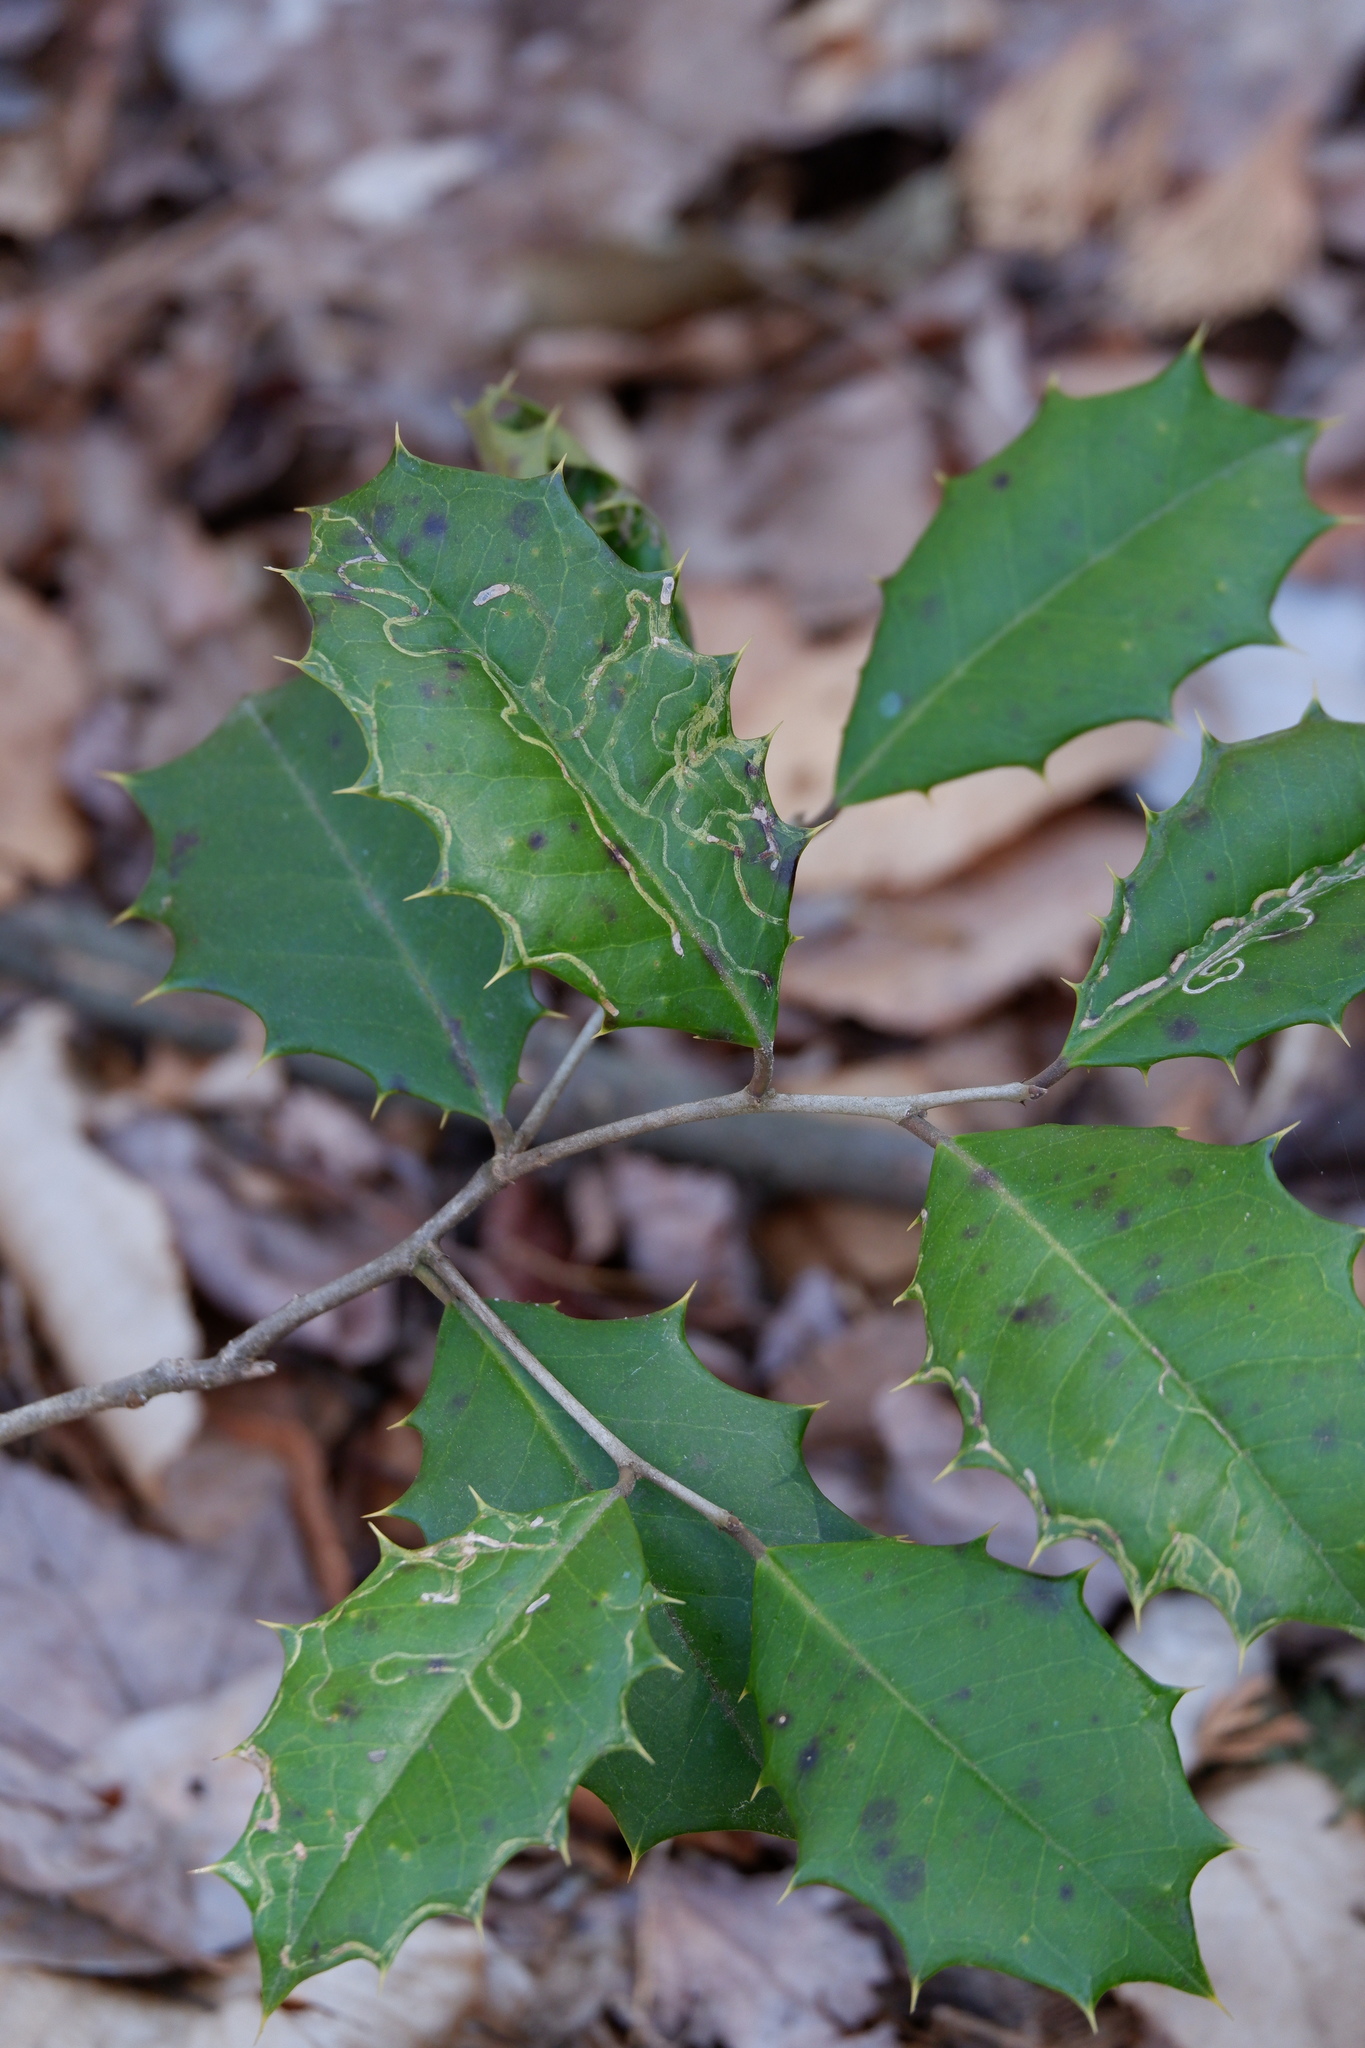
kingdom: Animalia
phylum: Arthropoda
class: Insecta
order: Diptera
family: Agromyzidae
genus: Phytomyza
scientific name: Phytomyza opacae
